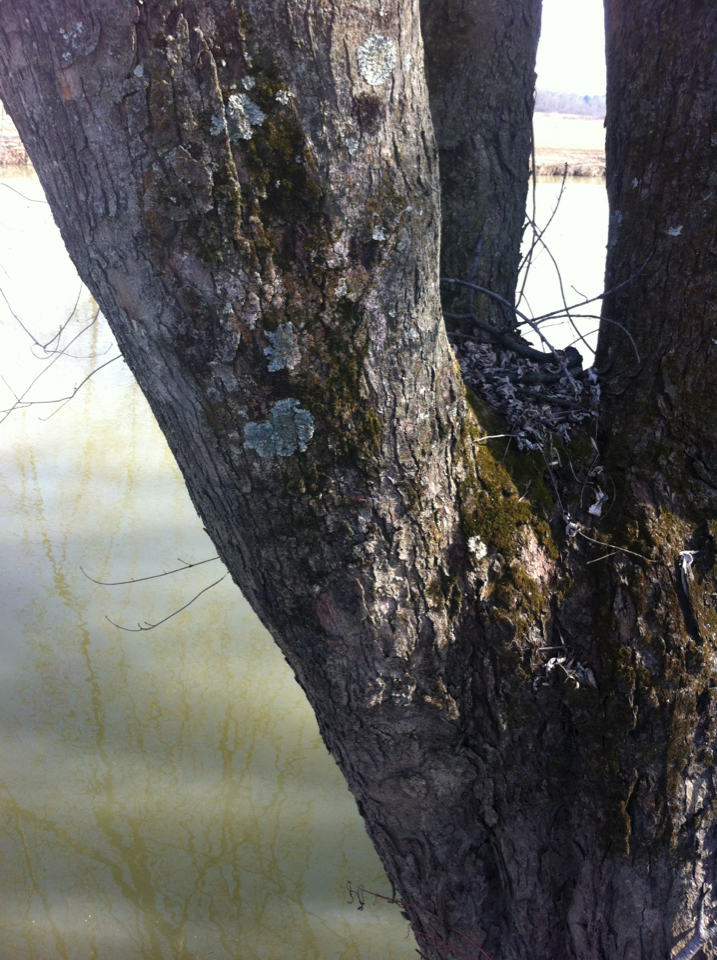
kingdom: Plantae
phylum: Tracheophyta
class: Magnoliopsida
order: Sapindales
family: Sapindaceae
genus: Acer
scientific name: Acer saccharinum
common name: Silver maple
